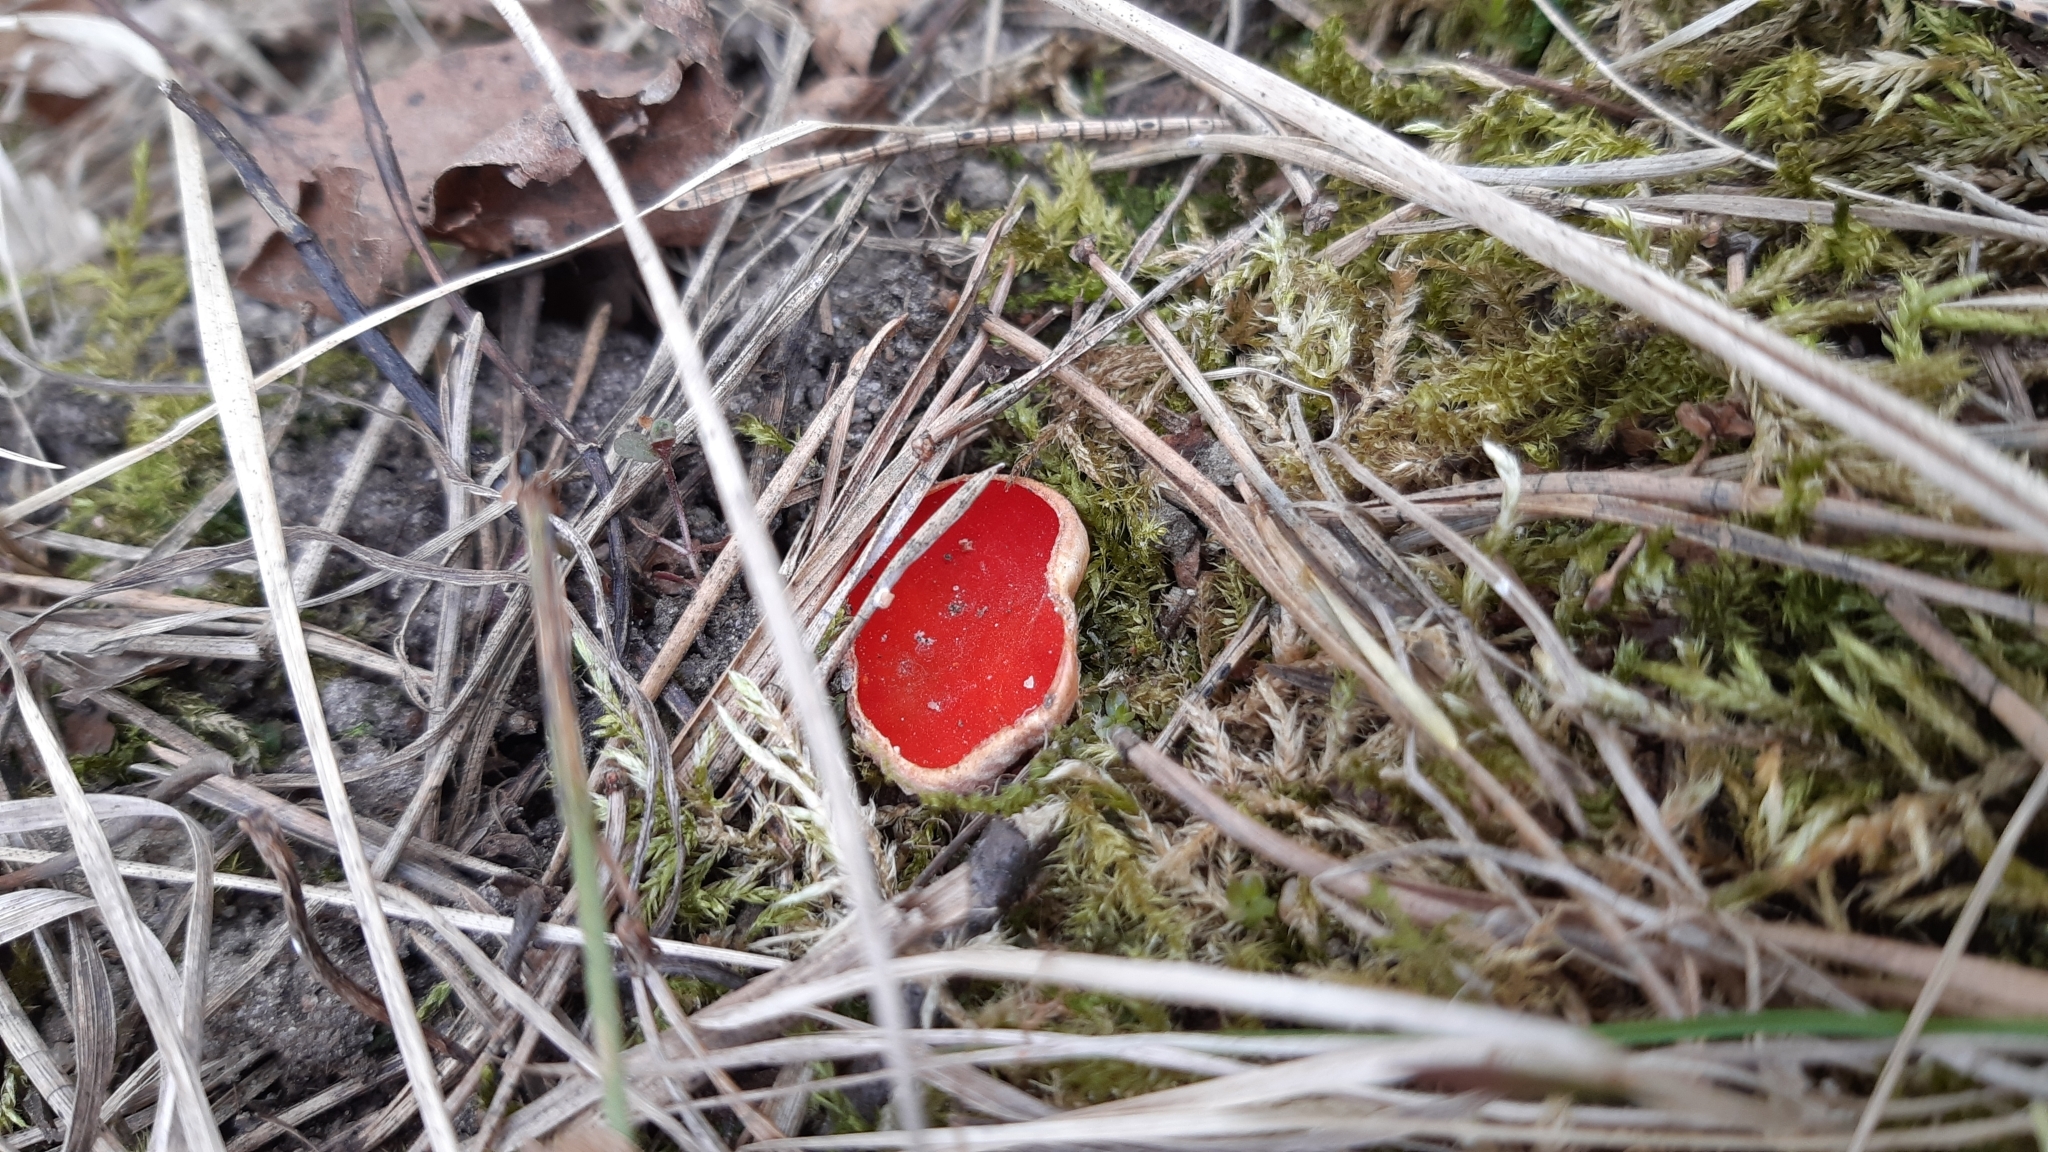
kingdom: Fungi
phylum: Ascomycota
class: Pezizomycetes
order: Pezizales
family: Sarcoscyphaceae
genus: Sarcoscypha
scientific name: Sarcoscypha austriaca
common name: Scarlet elfcup
